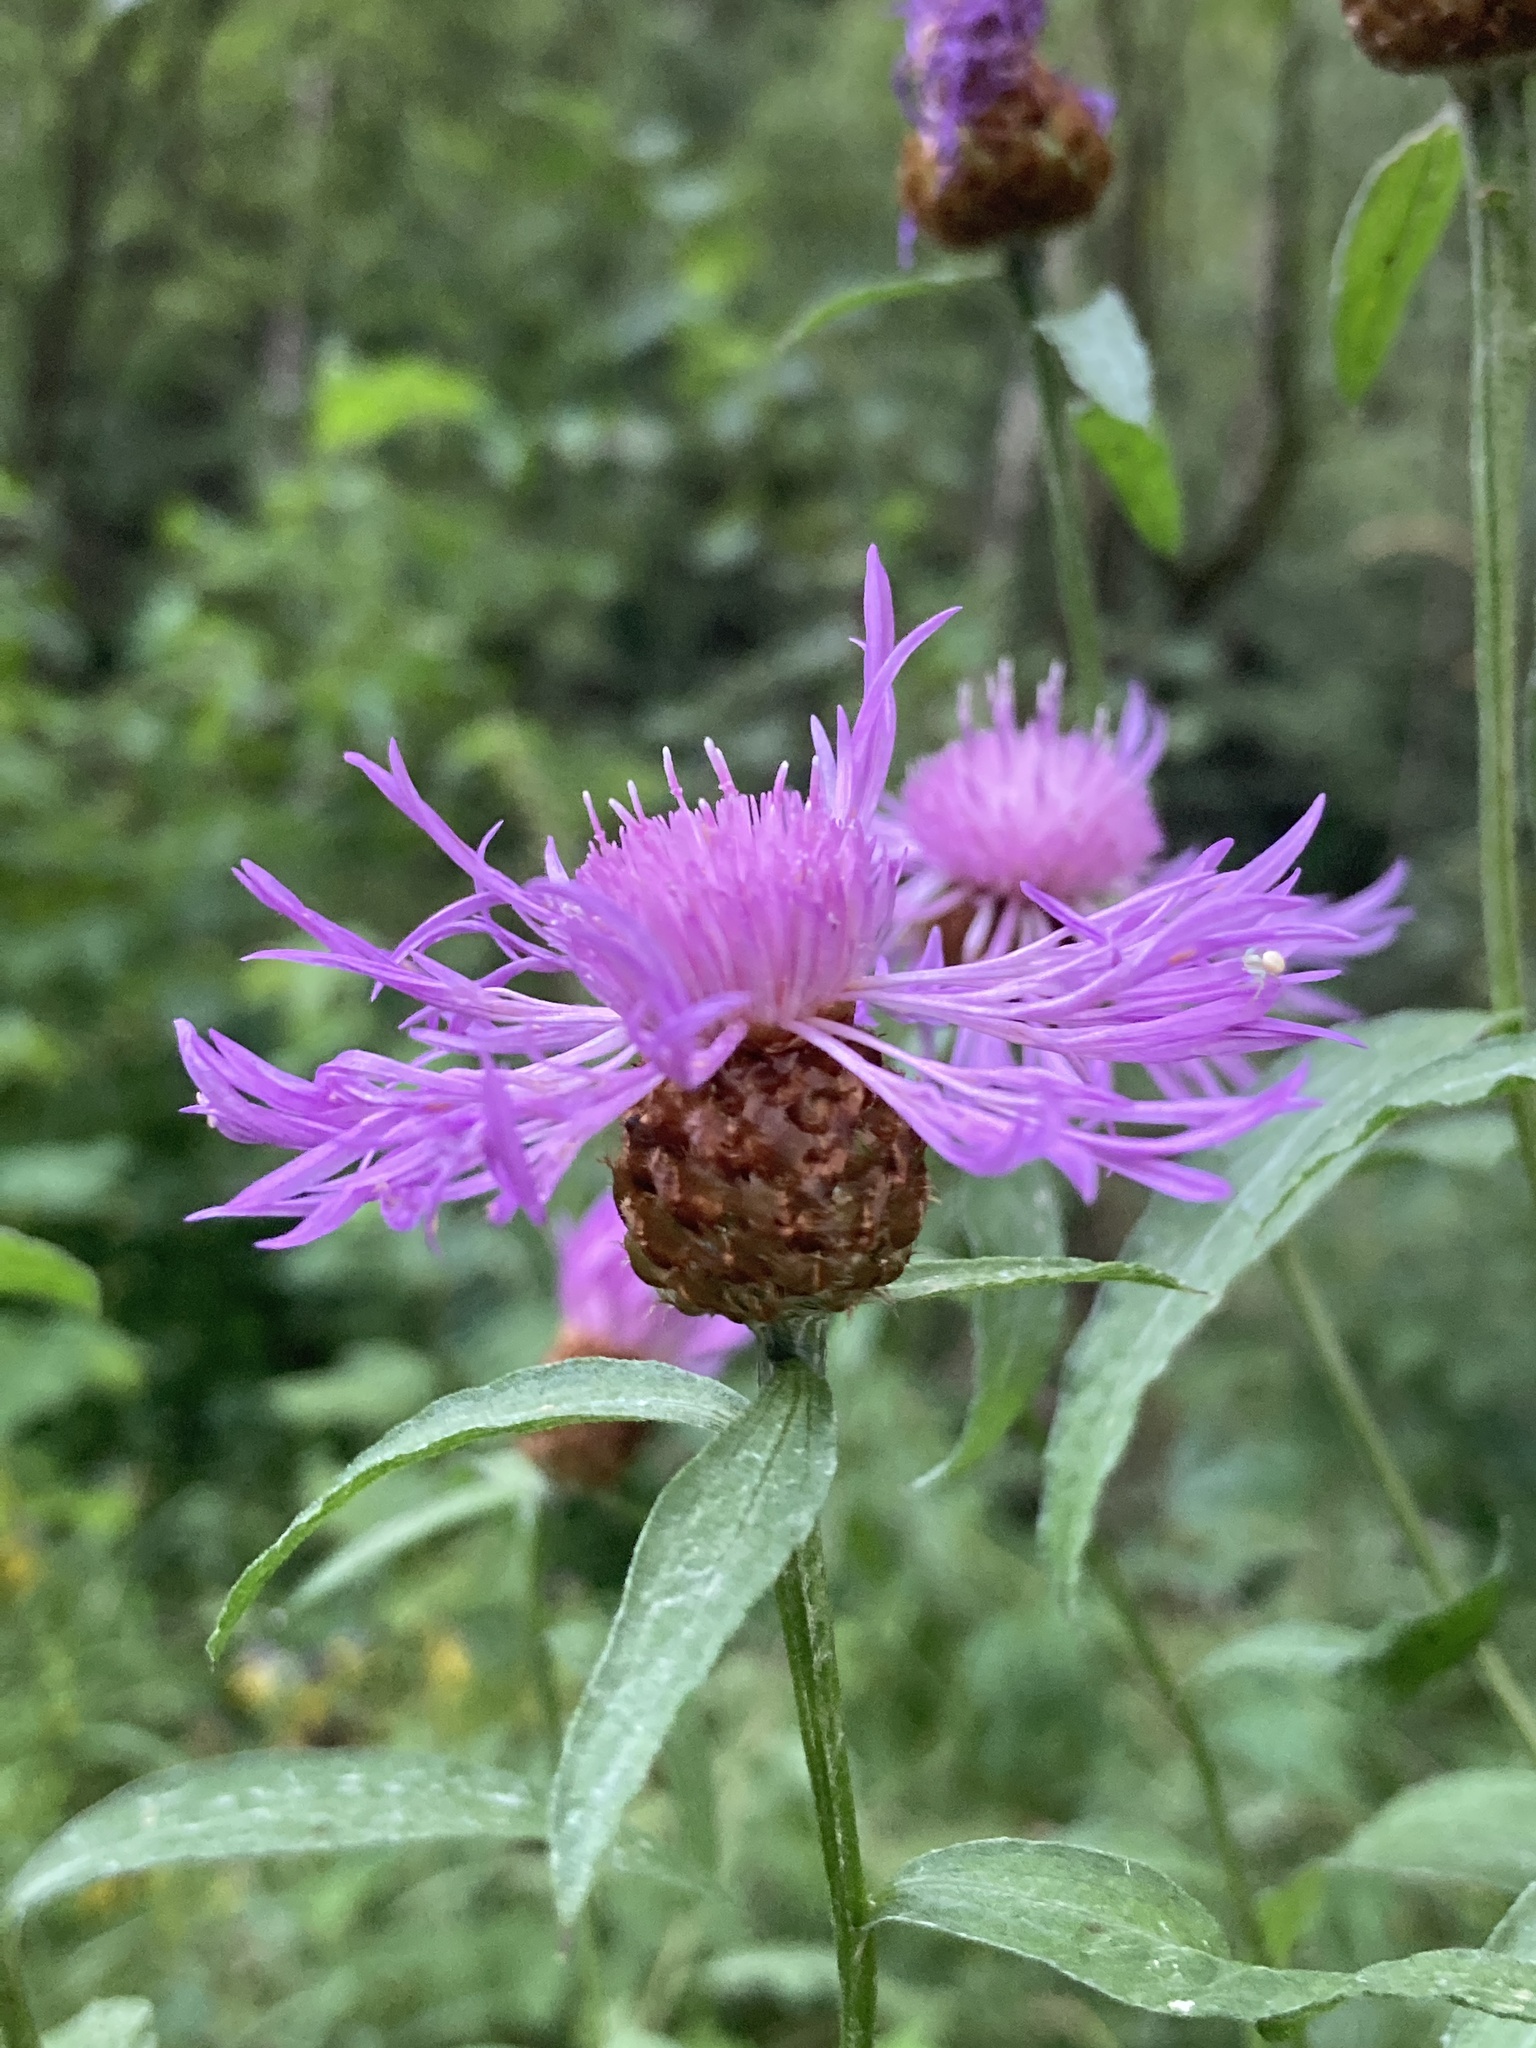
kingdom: Plantae
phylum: Tracheophyta
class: Magnoliopsida
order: Asterales
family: Asteraceae
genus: Centaurea
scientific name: Centaurea jacea
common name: Brown knapweed
